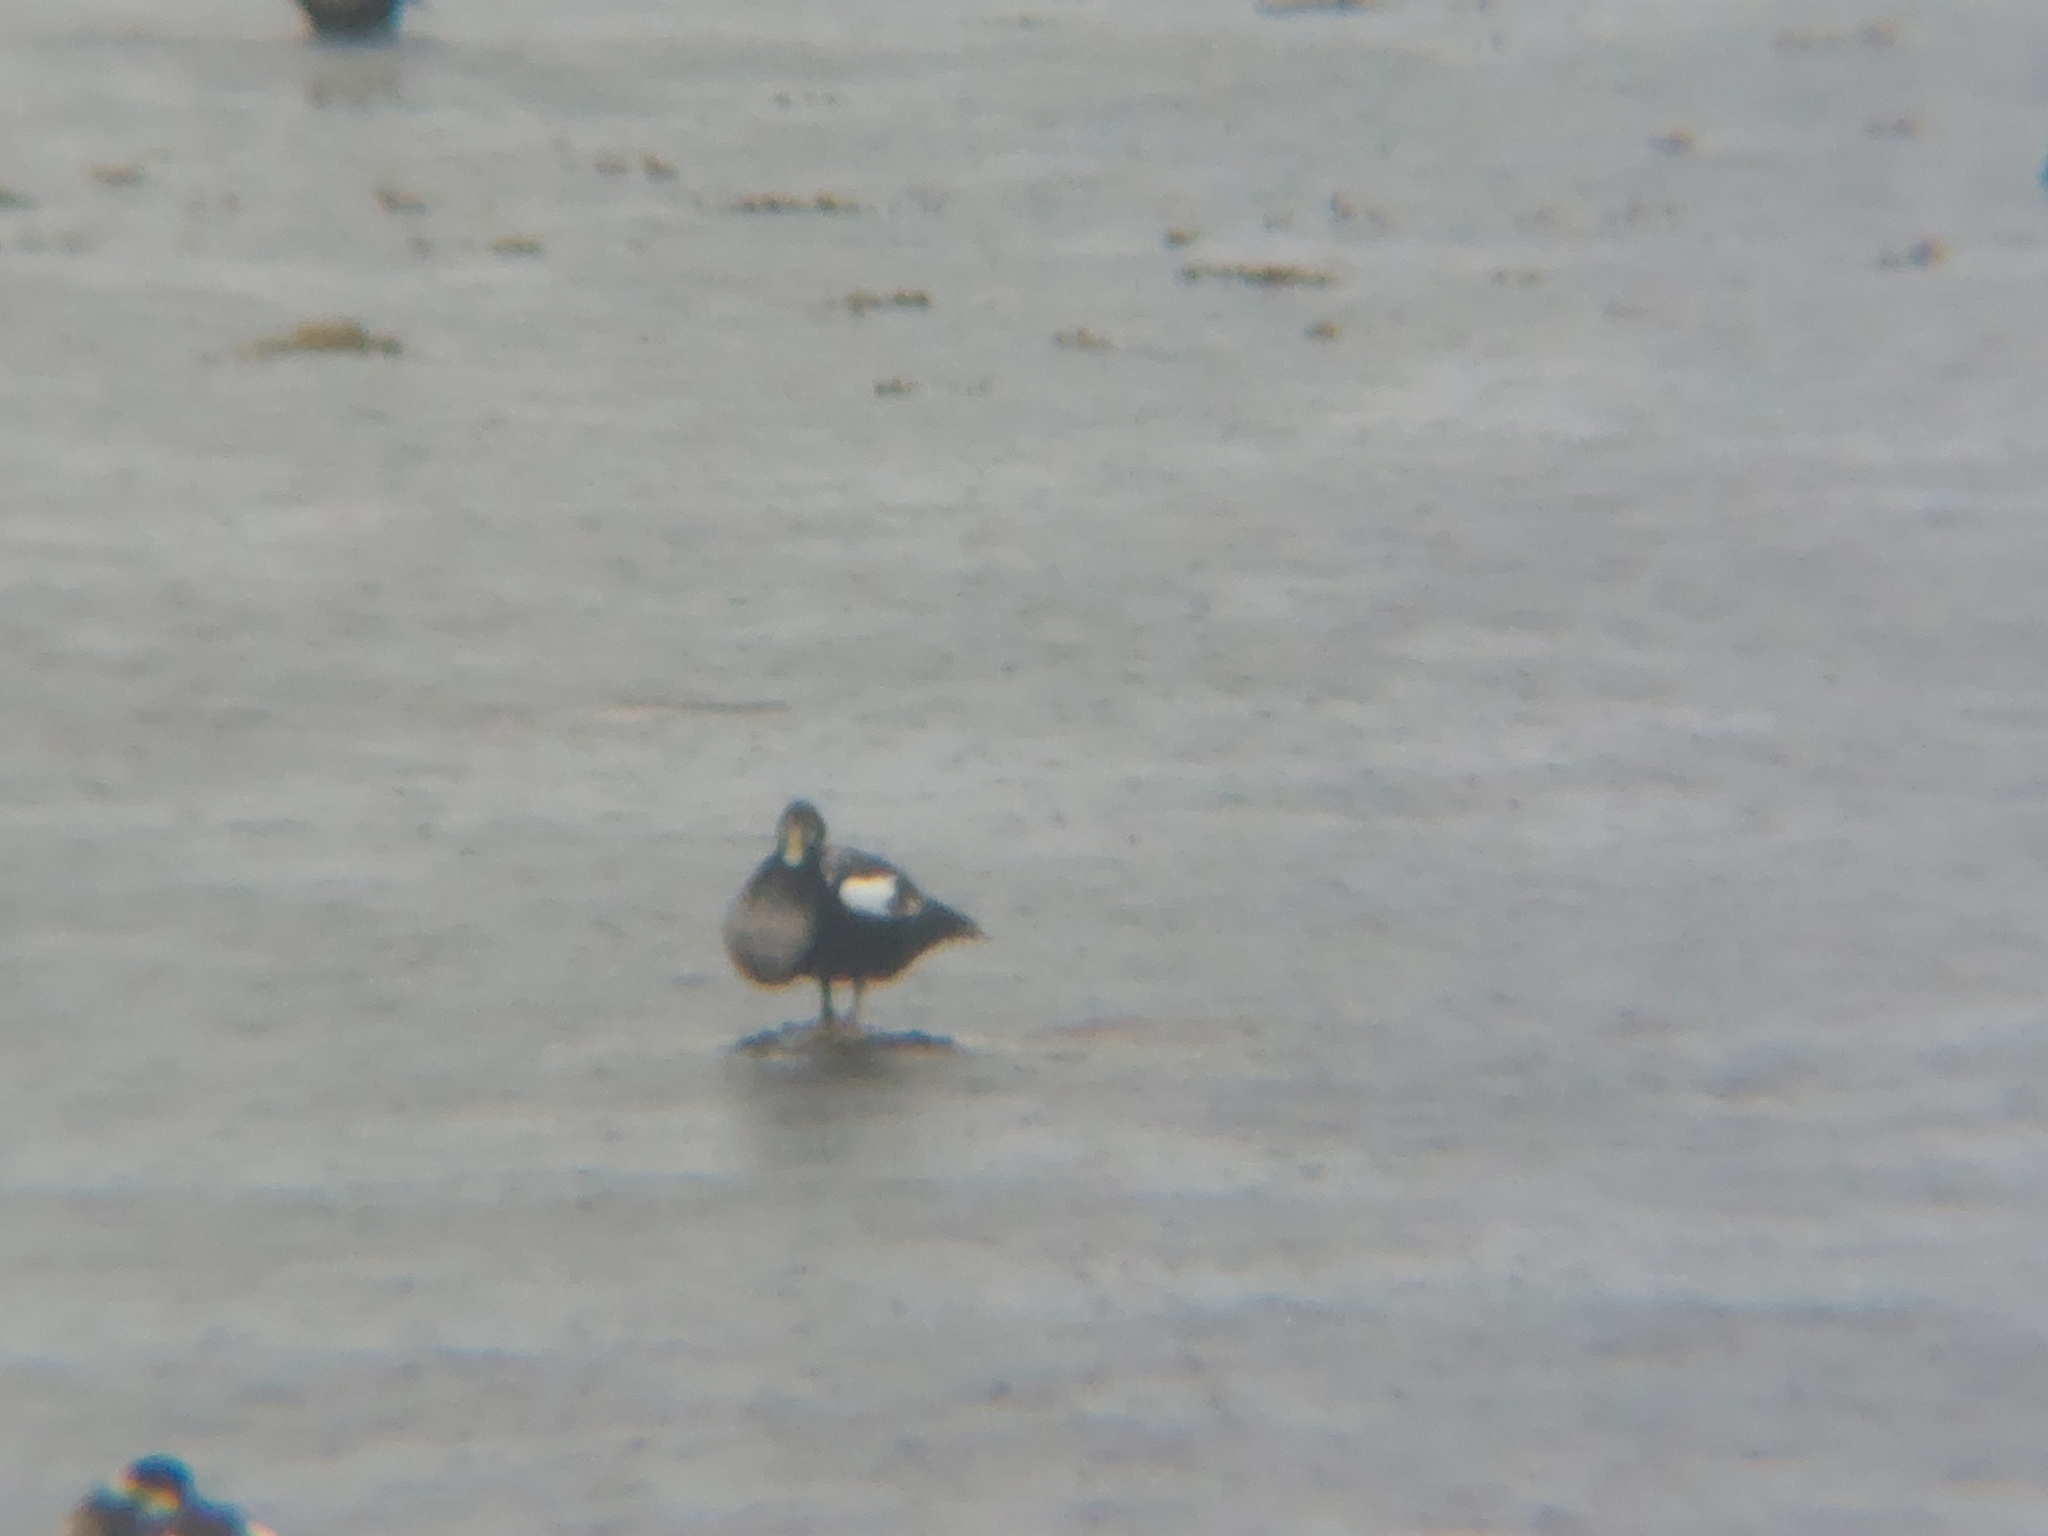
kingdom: Animalia
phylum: Chordata
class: Aves
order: Anseriformes
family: Anatidae
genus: Somateria
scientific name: Somateria mollissima
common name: Common eider
